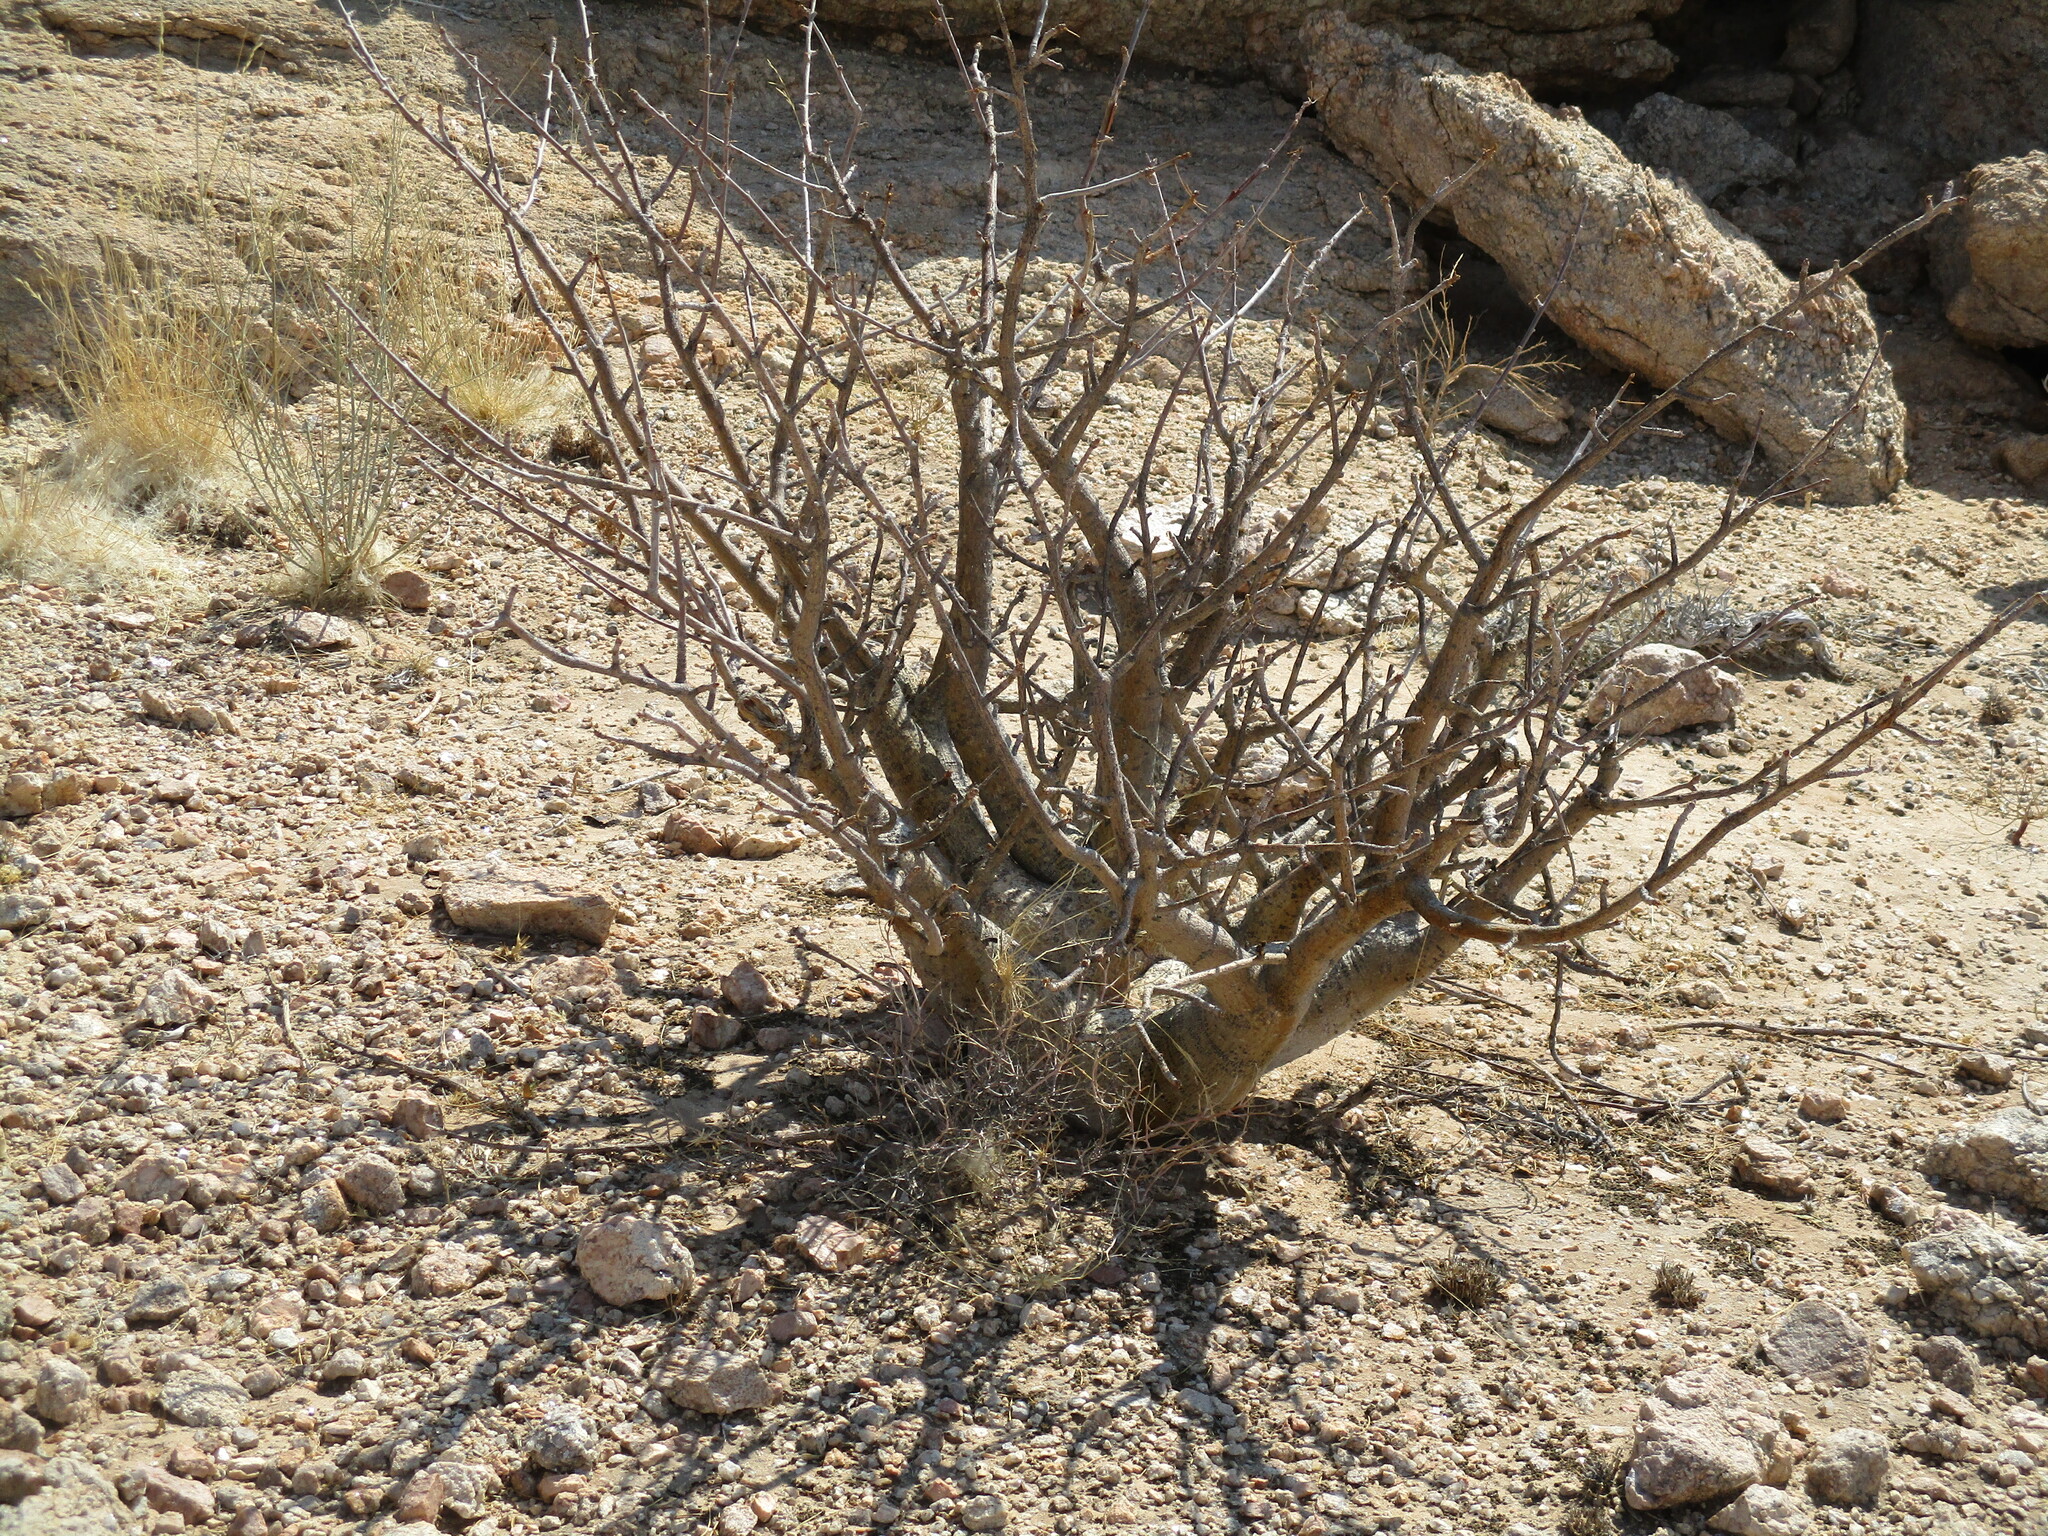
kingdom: Plantae
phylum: Tracheophyta
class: Magnoliopsida
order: Sapindales
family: Burseraceae
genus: Commiphora
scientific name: Commiphora saxicola
